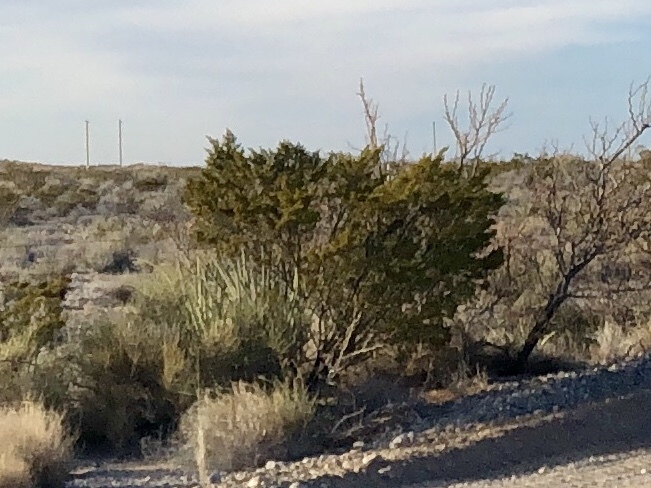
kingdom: Plantae
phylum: Tracheophyta
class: Magnoliopsida
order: Zygophyllales
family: Zygophyllaceae
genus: Larrea
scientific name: Larrea tridentata
